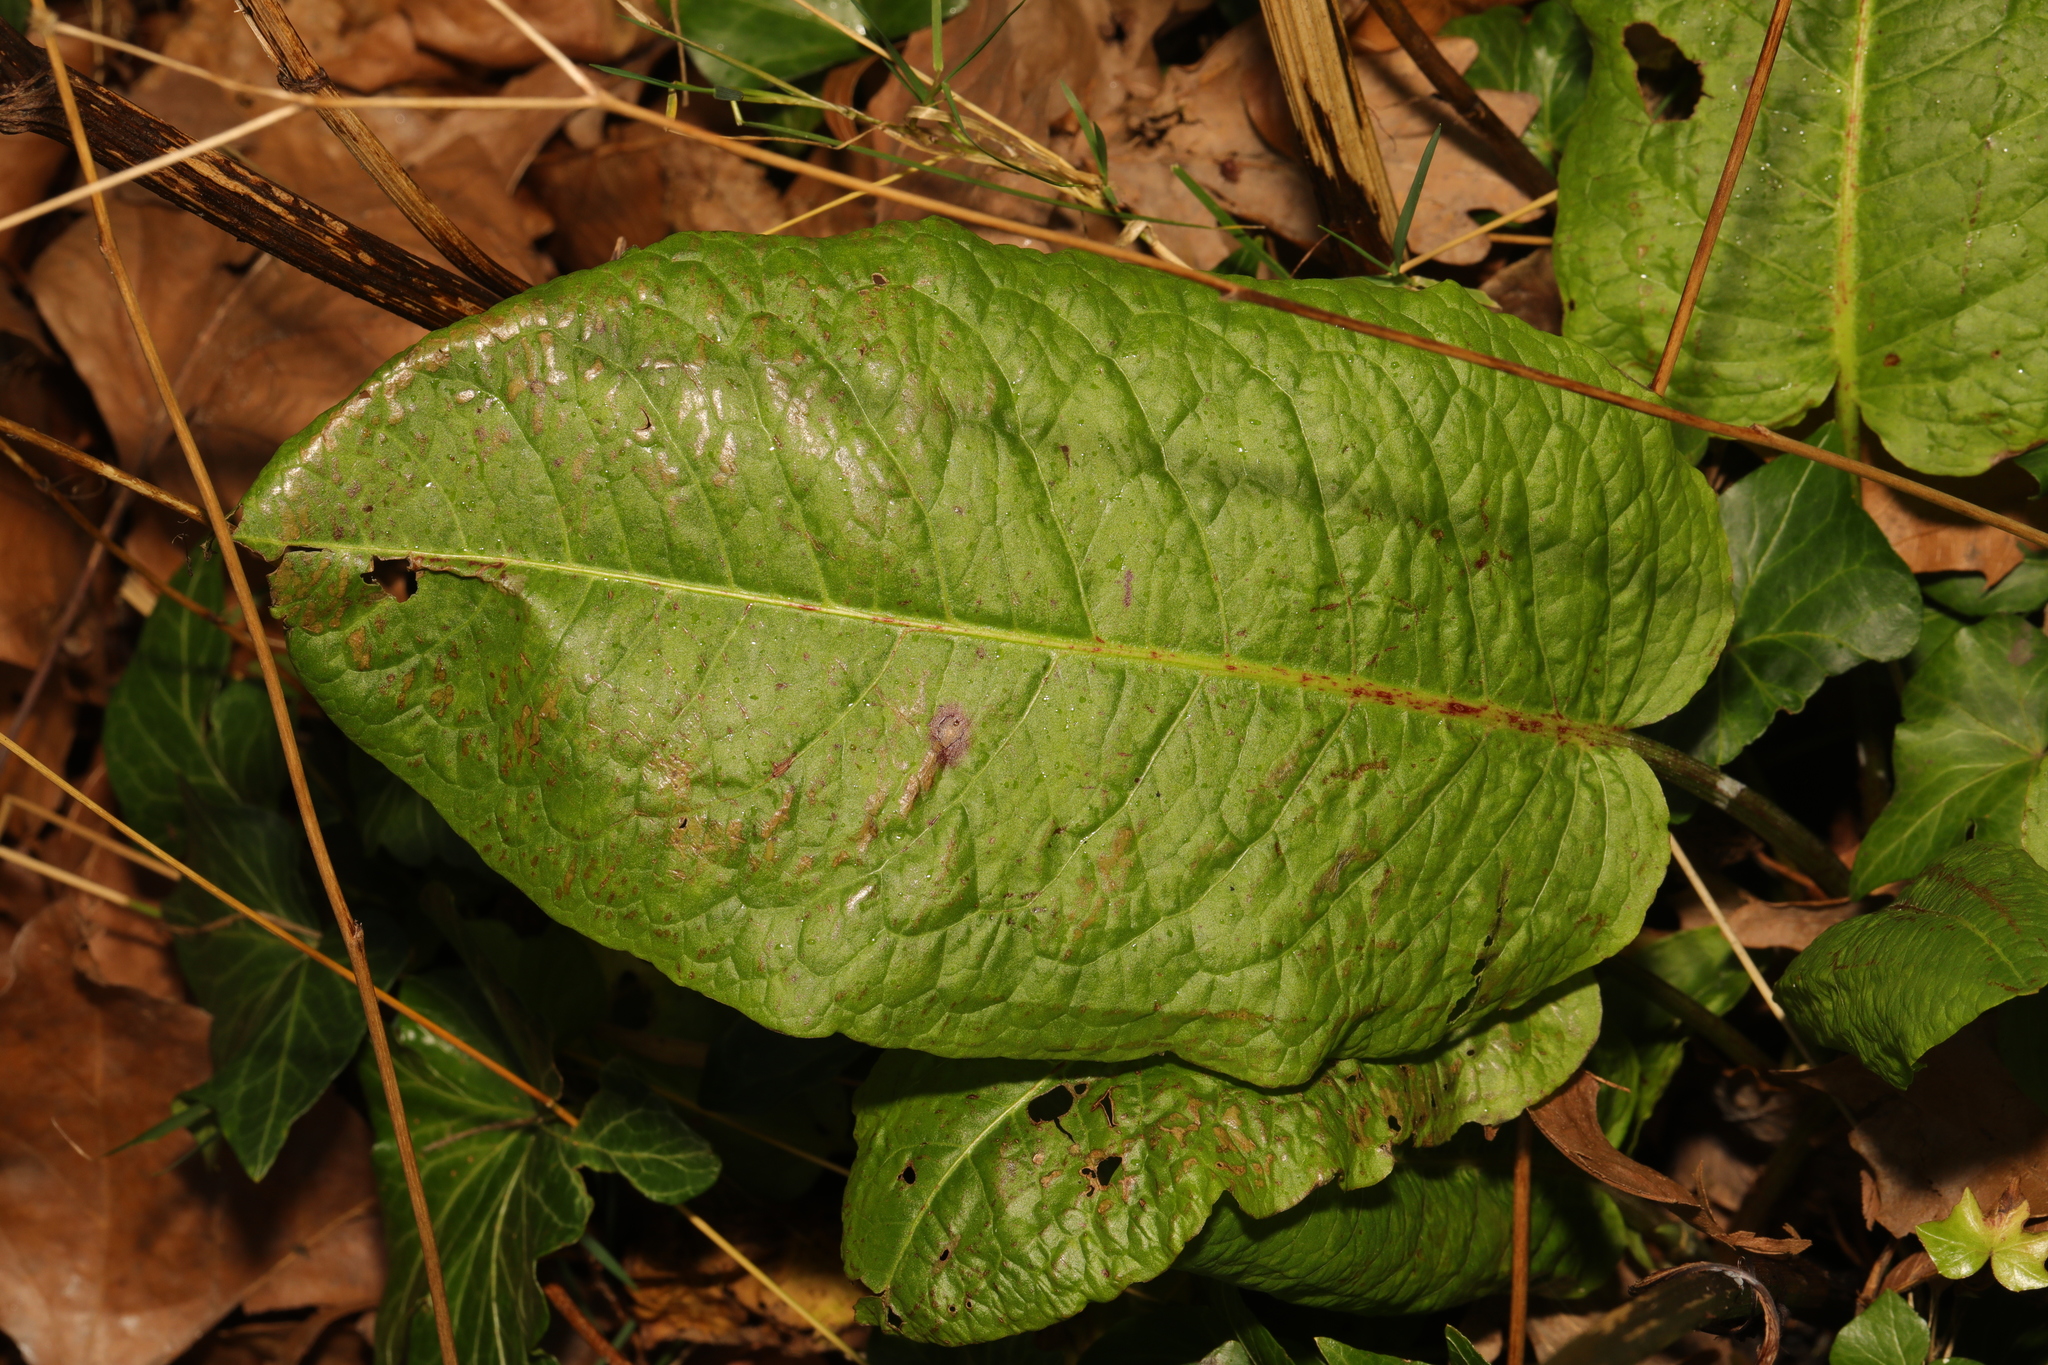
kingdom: Plantae
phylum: Tracheophyta
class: Magnoliopsida
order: Caryophyllales
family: Polygonaceae
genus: Rumex
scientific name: Rumex obtusifolius
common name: Bitter dock
